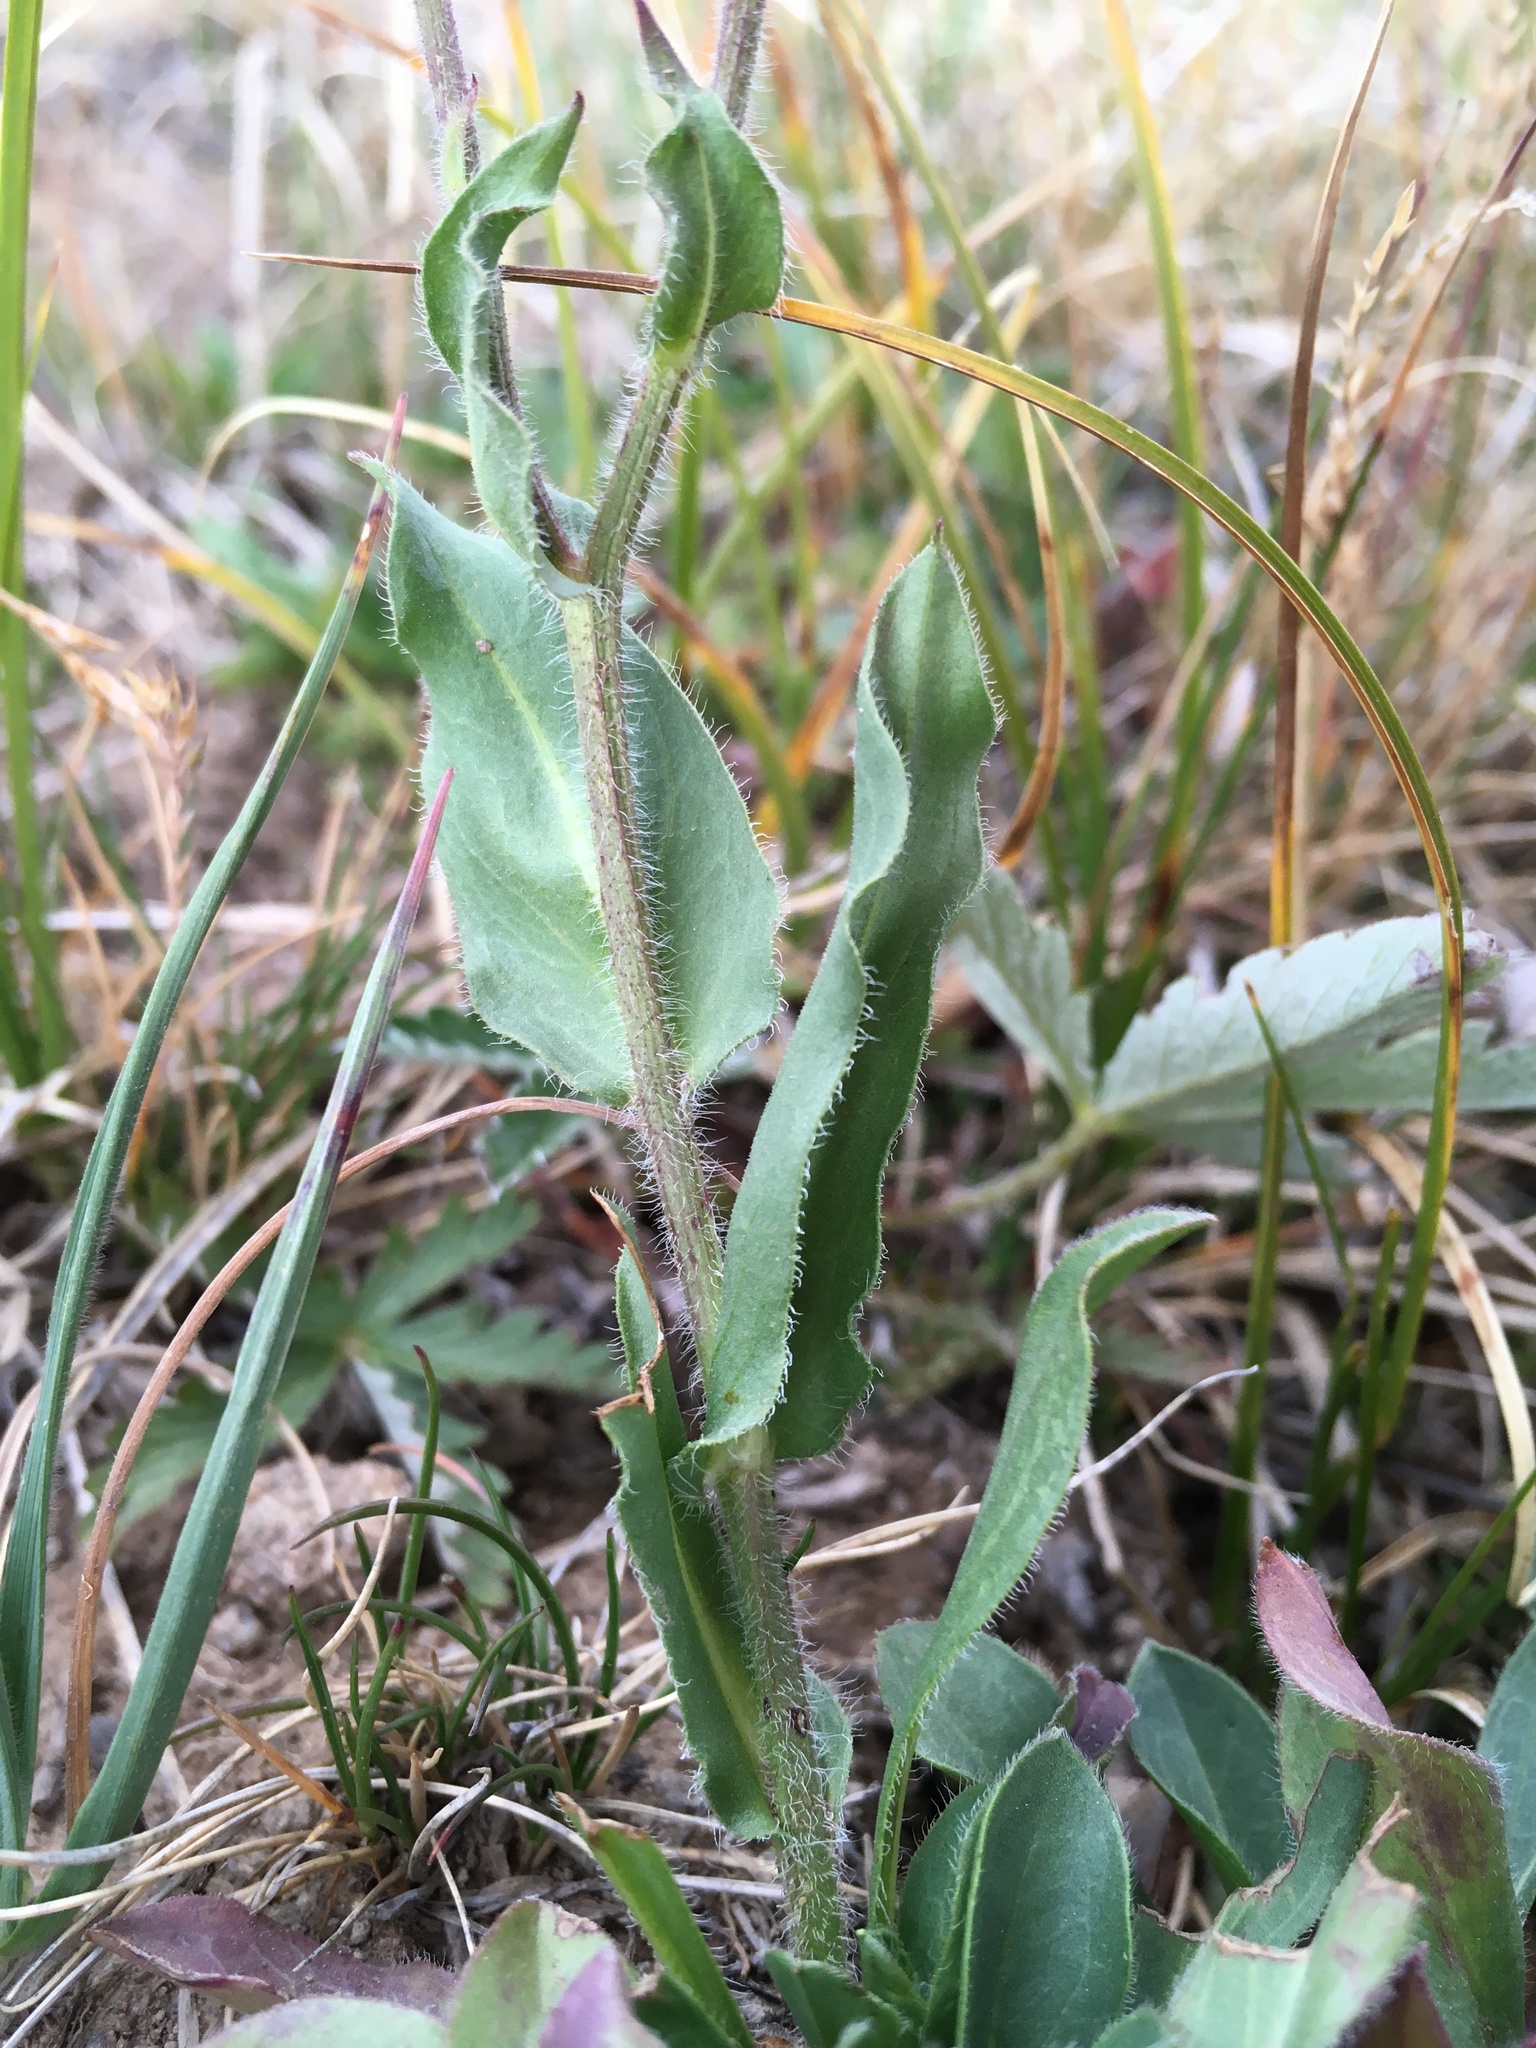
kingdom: Plantae
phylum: Tracheophyta
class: Magnoliopsida
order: Asterales
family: Asteraceae
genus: Erigeron
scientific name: Erigeron formosissimus
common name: Beautiful fleabane
